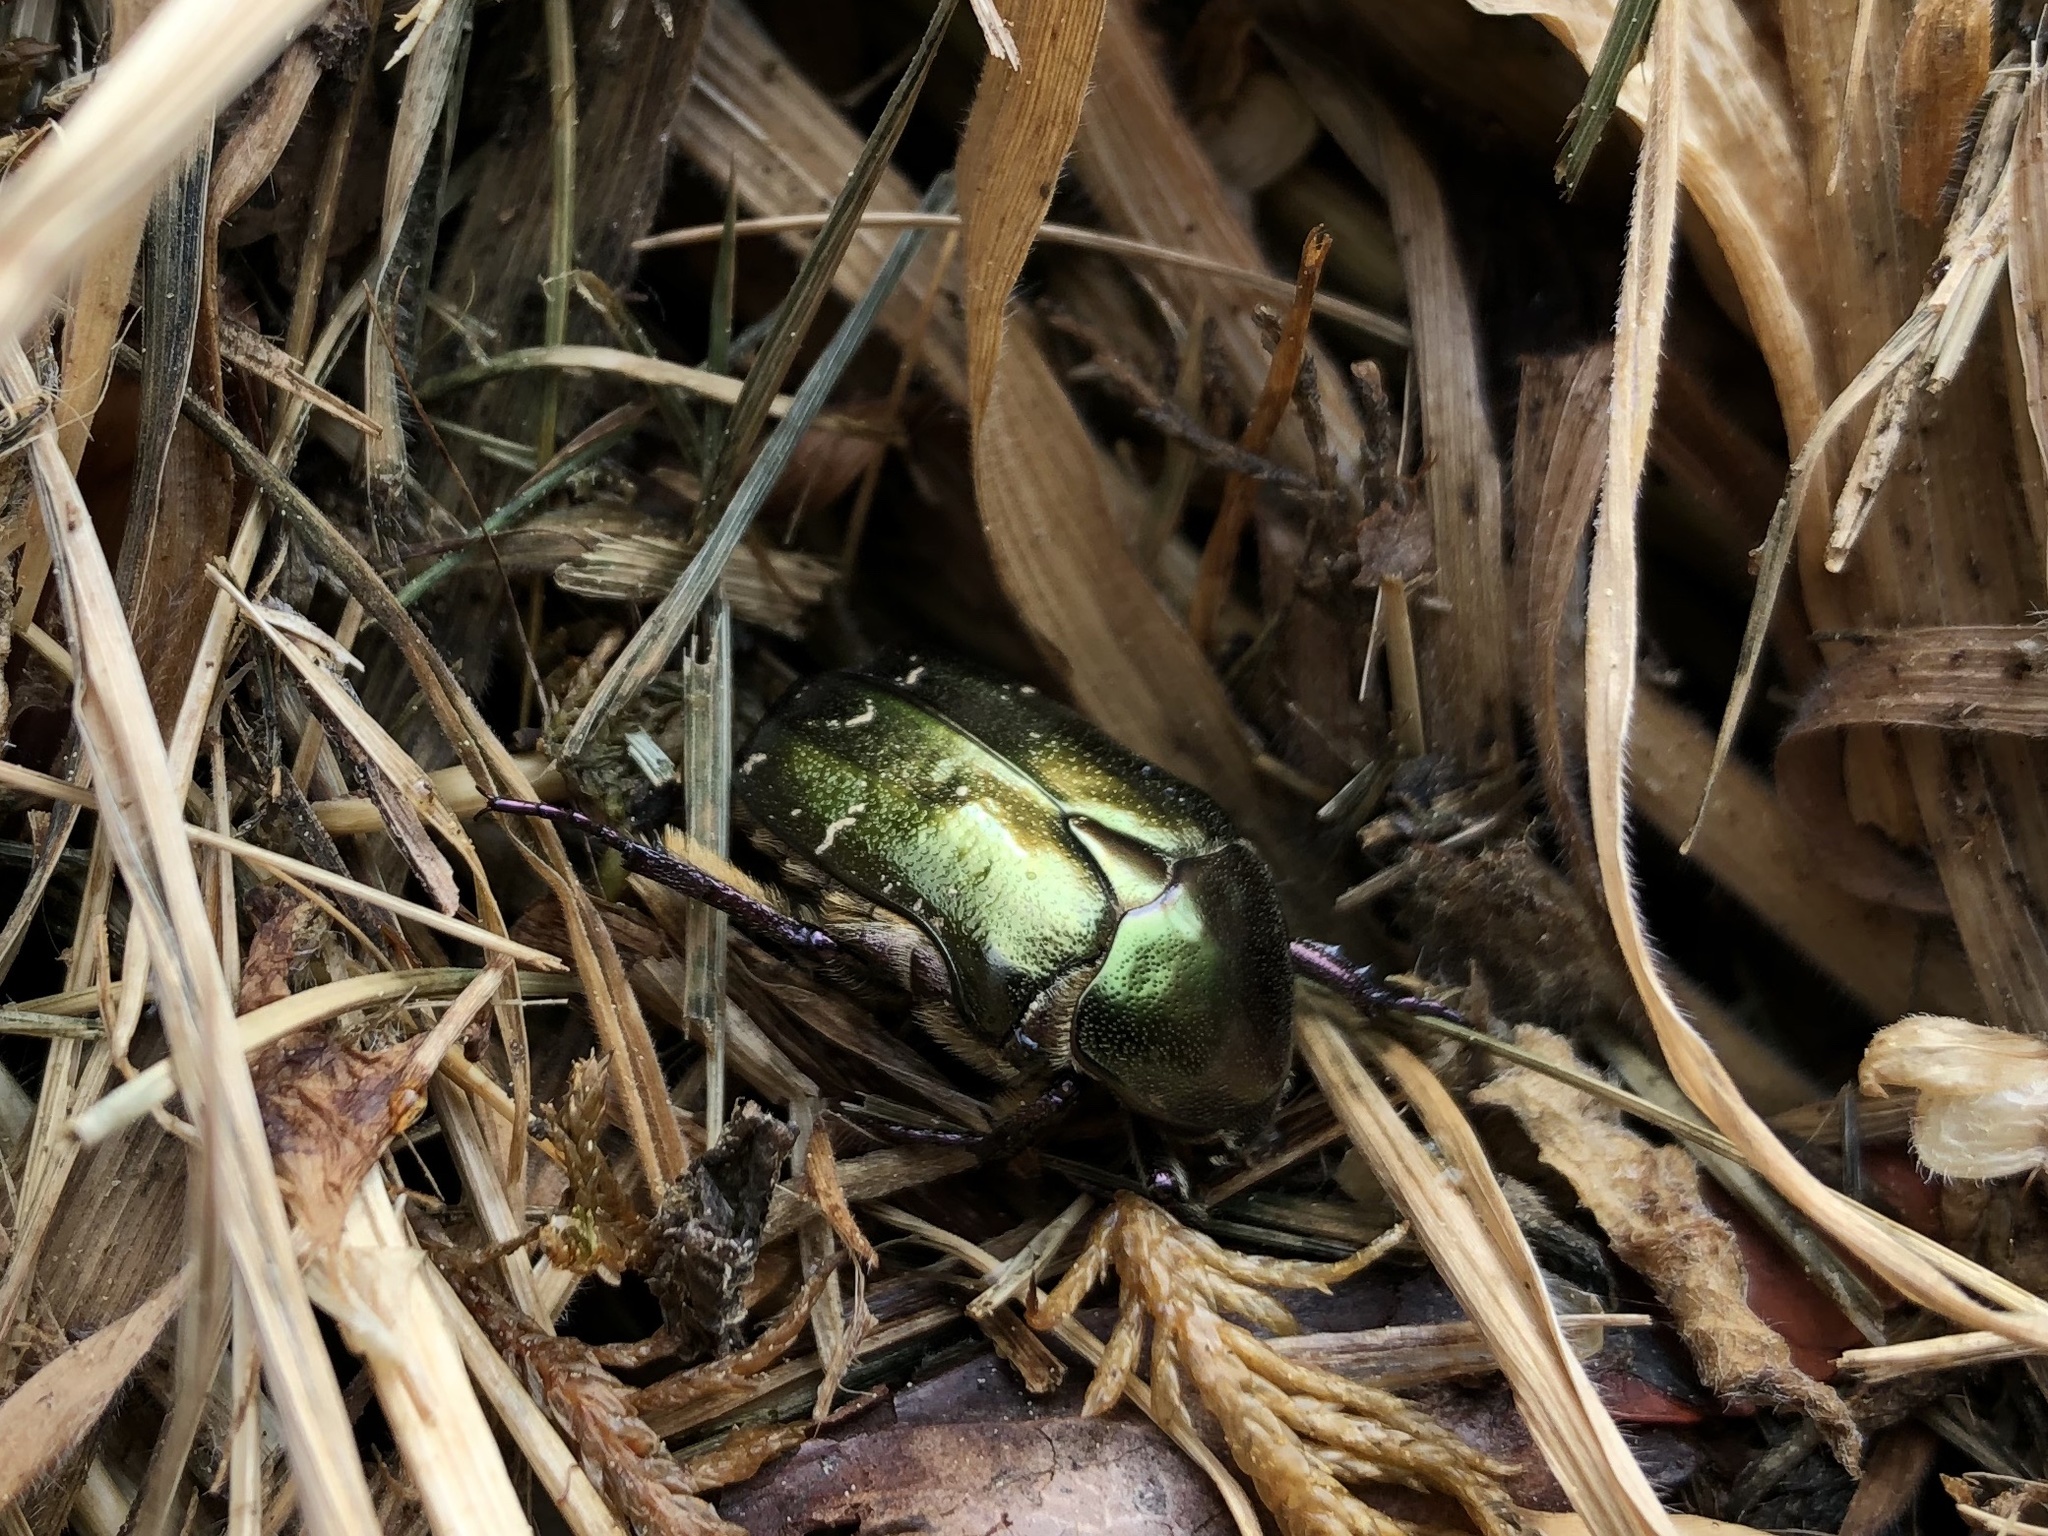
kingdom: Animalia
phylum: Arthropoda
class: Insecta
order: Coleoptera
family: Scarabaeidae
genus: Protaetia
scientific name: Protaetia cuprea
